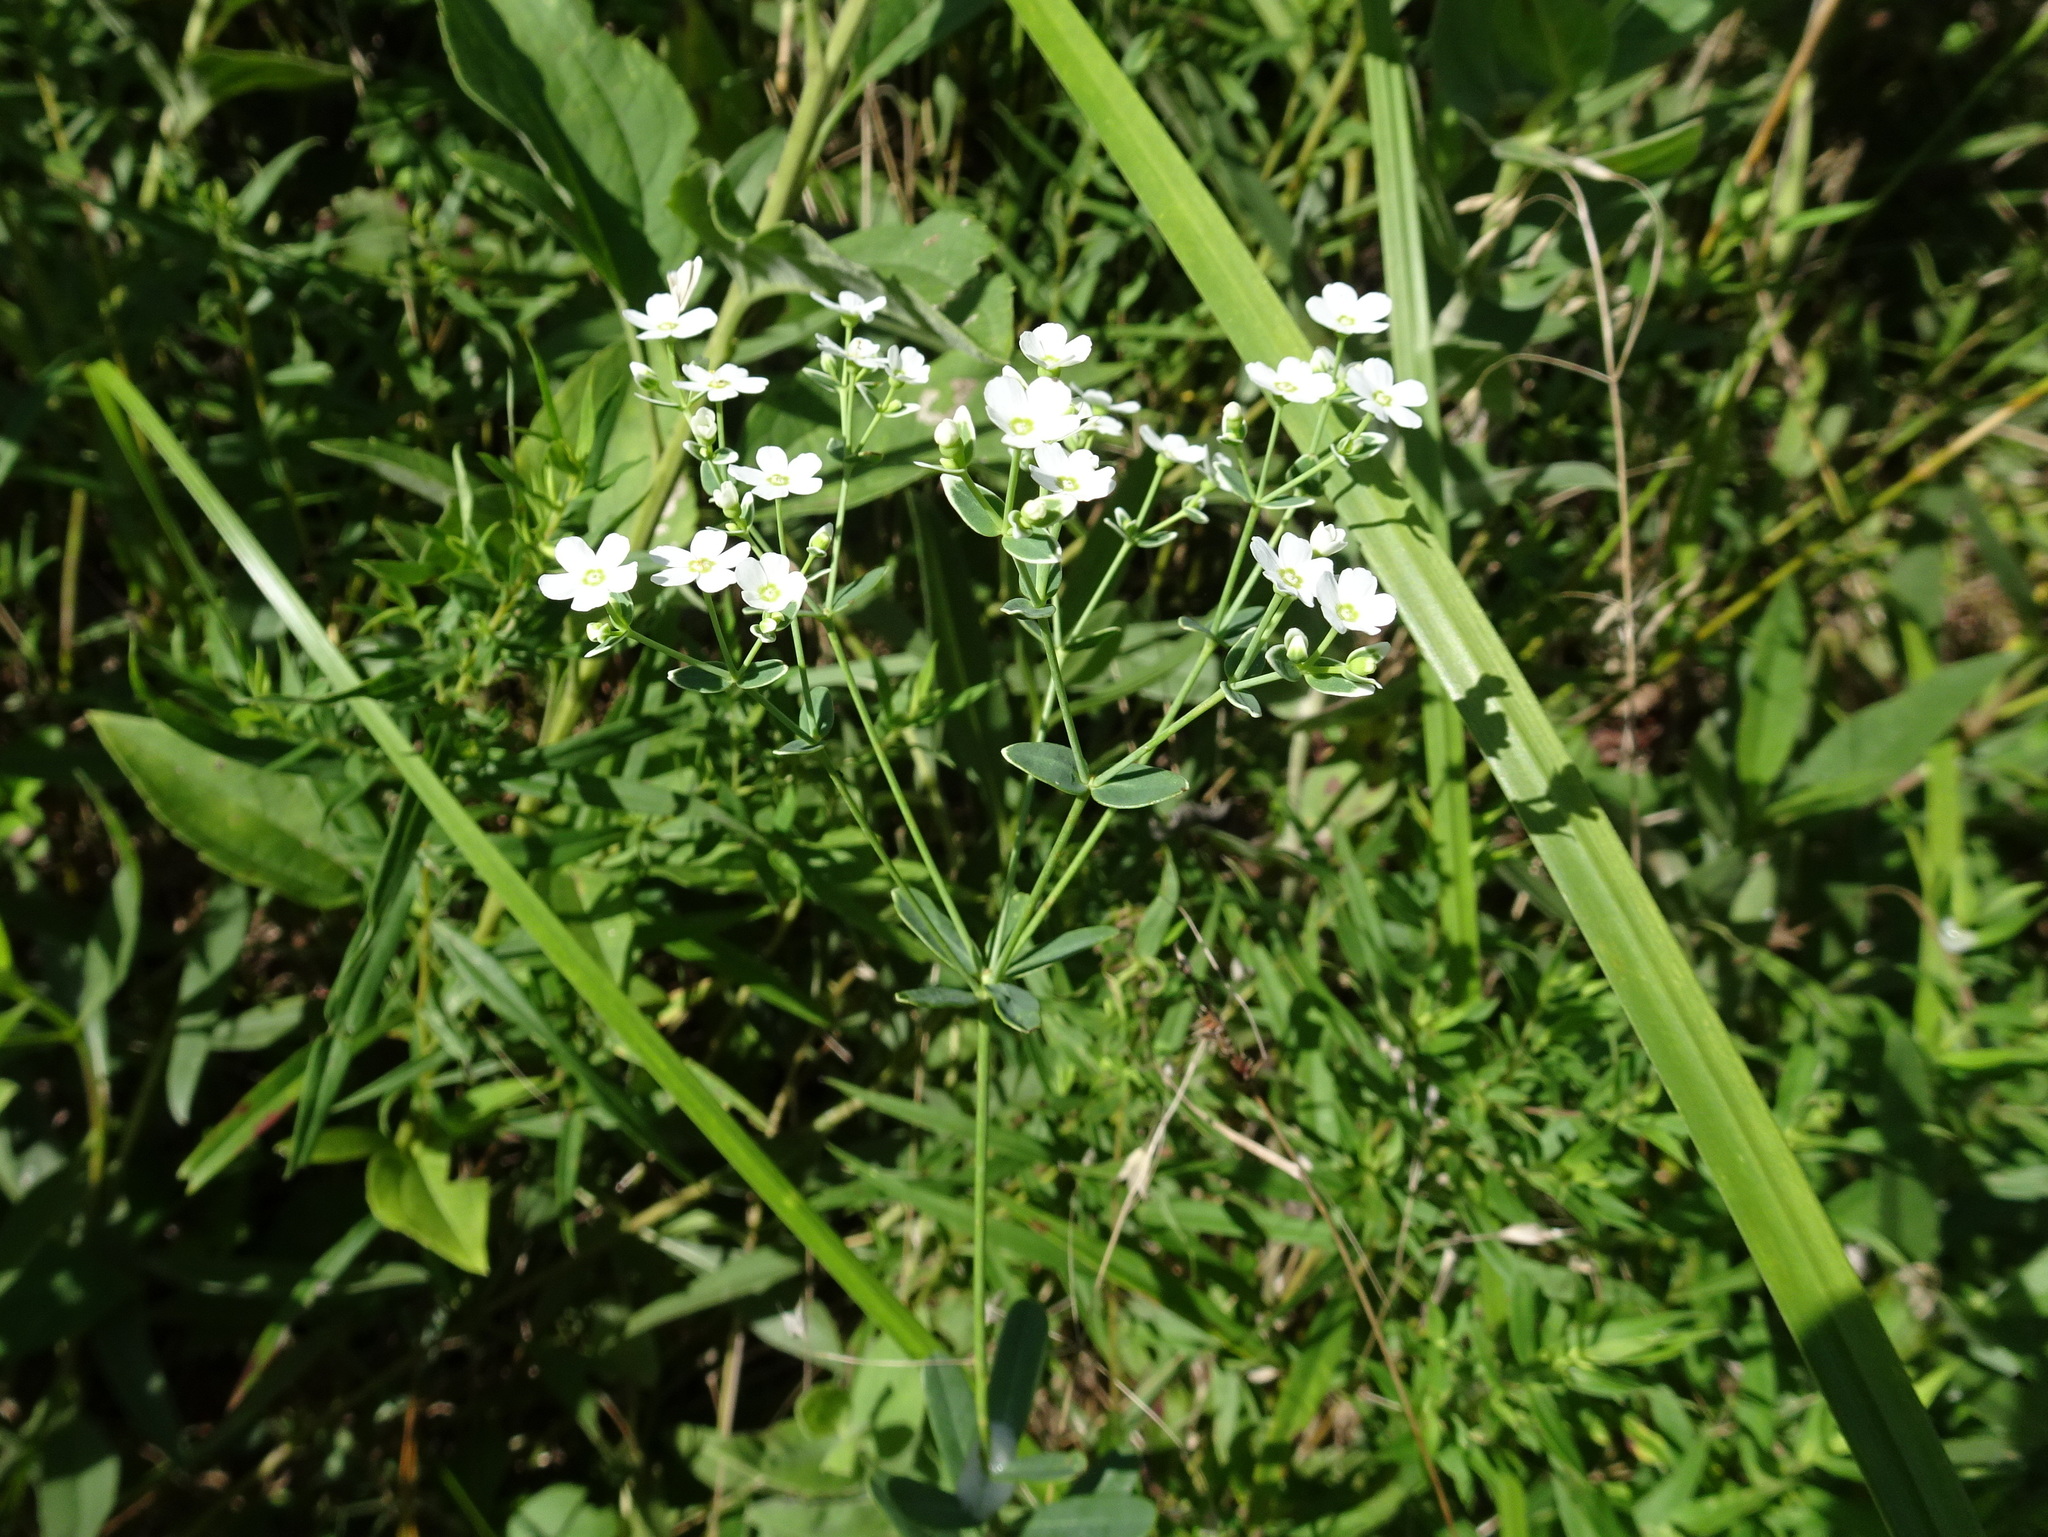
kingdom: Plantae
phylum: Tracheophyta
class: Magnoliopsida
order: Malpighiales
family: Euphorbiaceae
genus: Euphorbia
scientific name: Euphorbia corollata
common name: Flowering spurge
